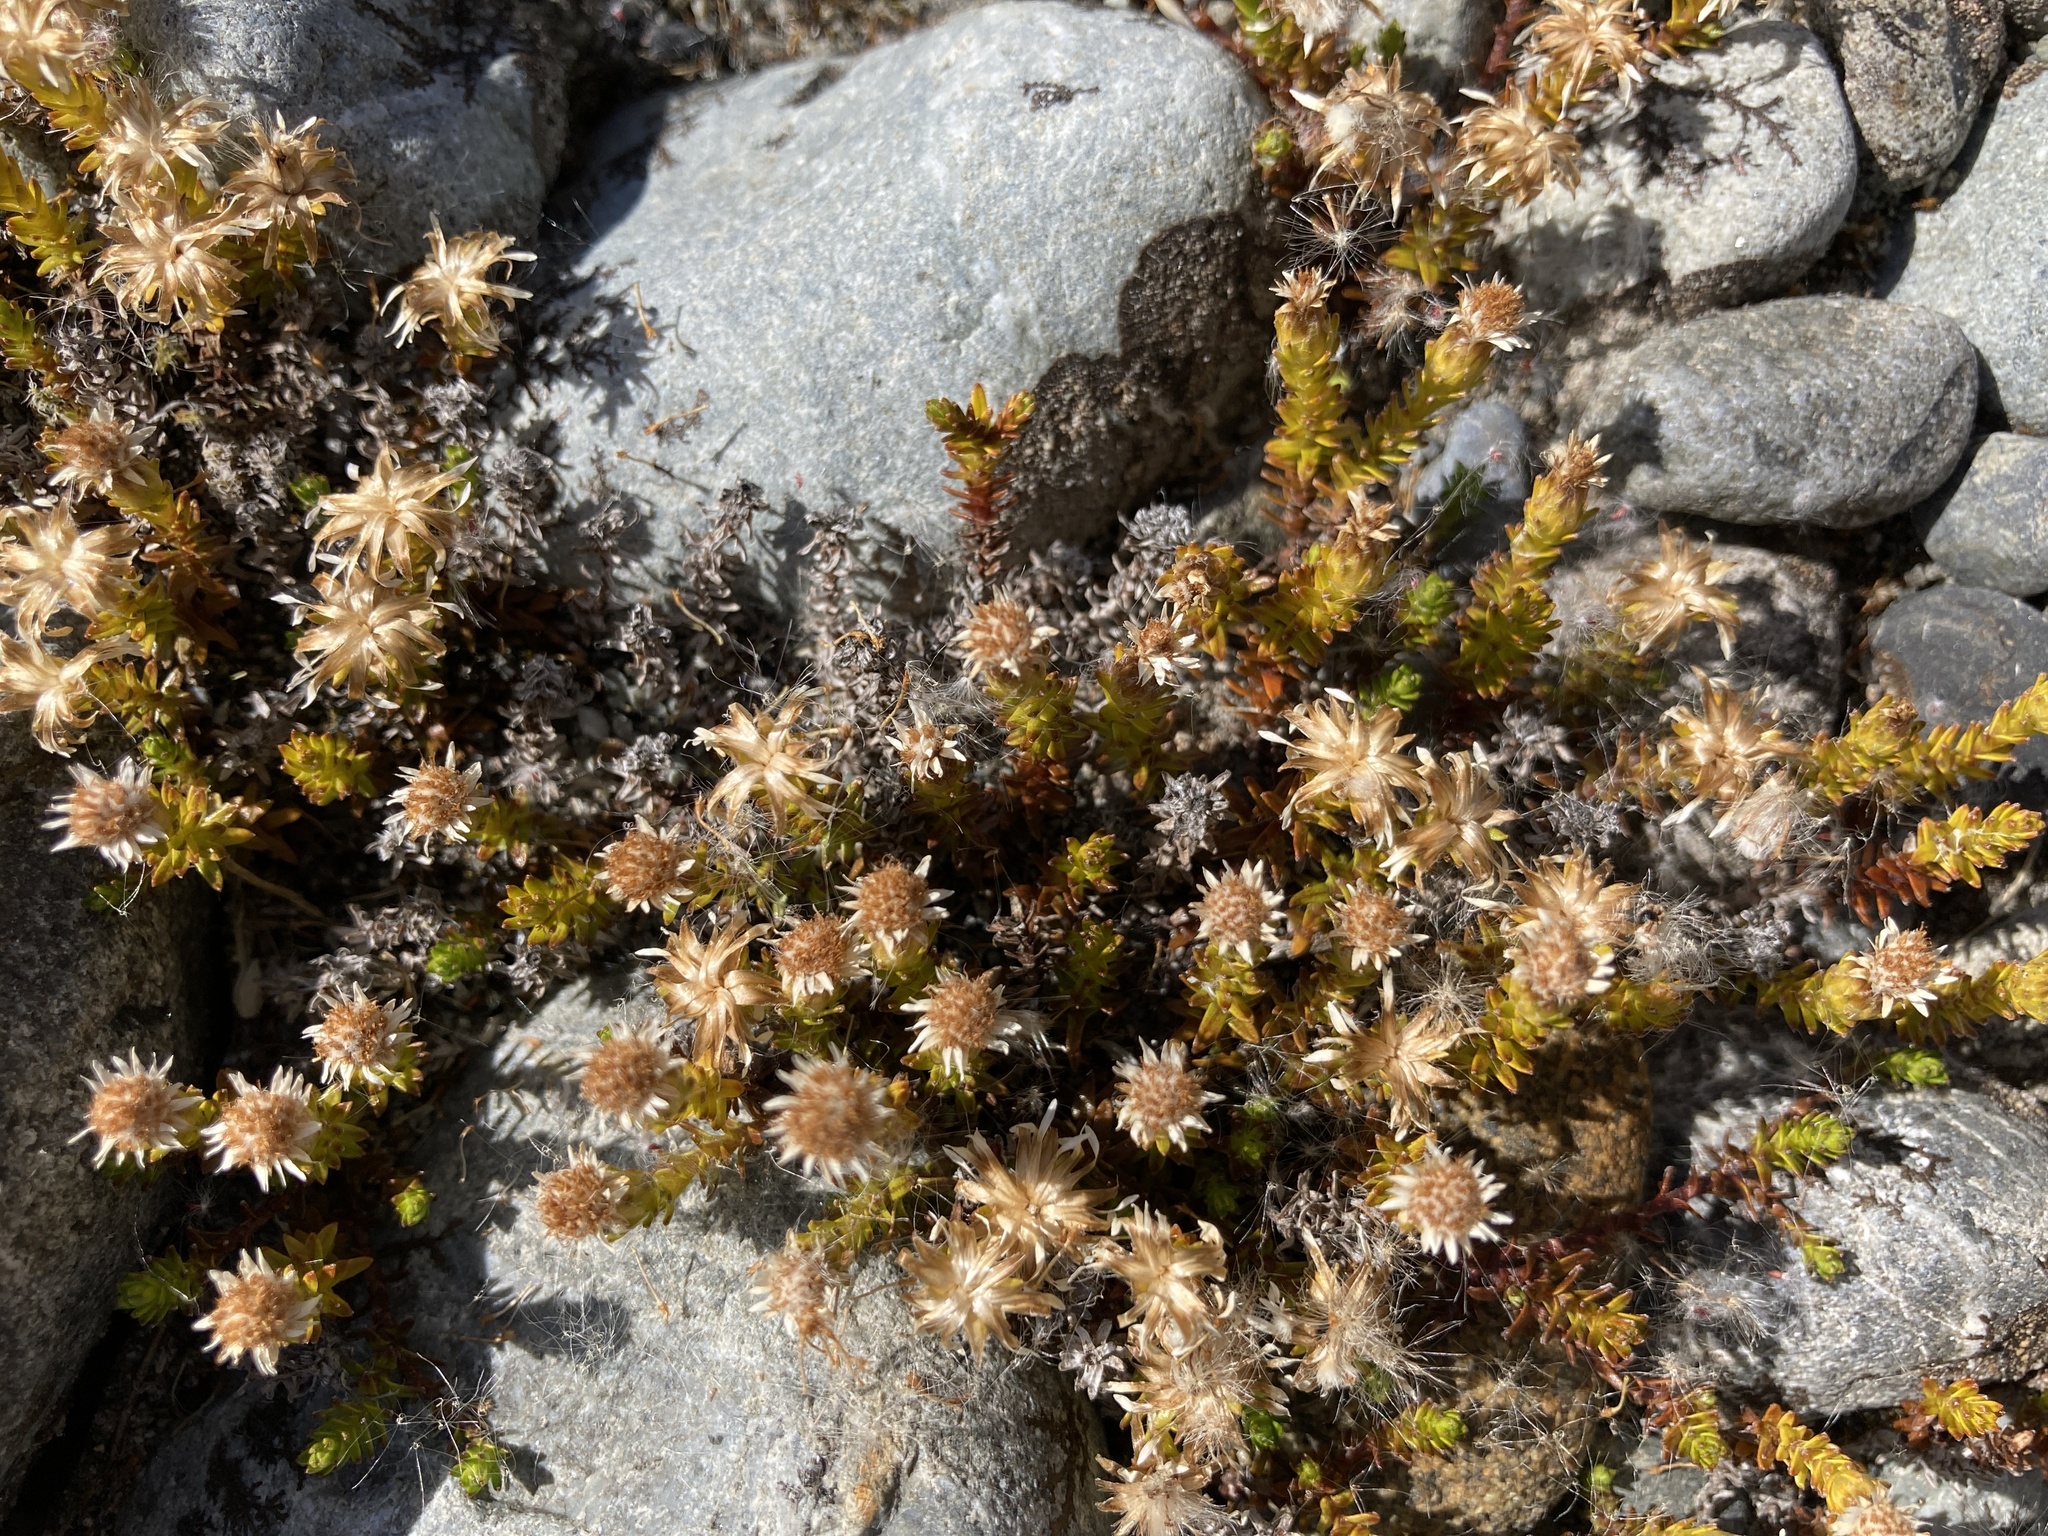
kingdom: Plantae
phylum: Tracheophyta
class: Magnoliopsida
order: Asterales
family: Asteraceae
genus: Raoulia
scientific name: Raoulia glabra
